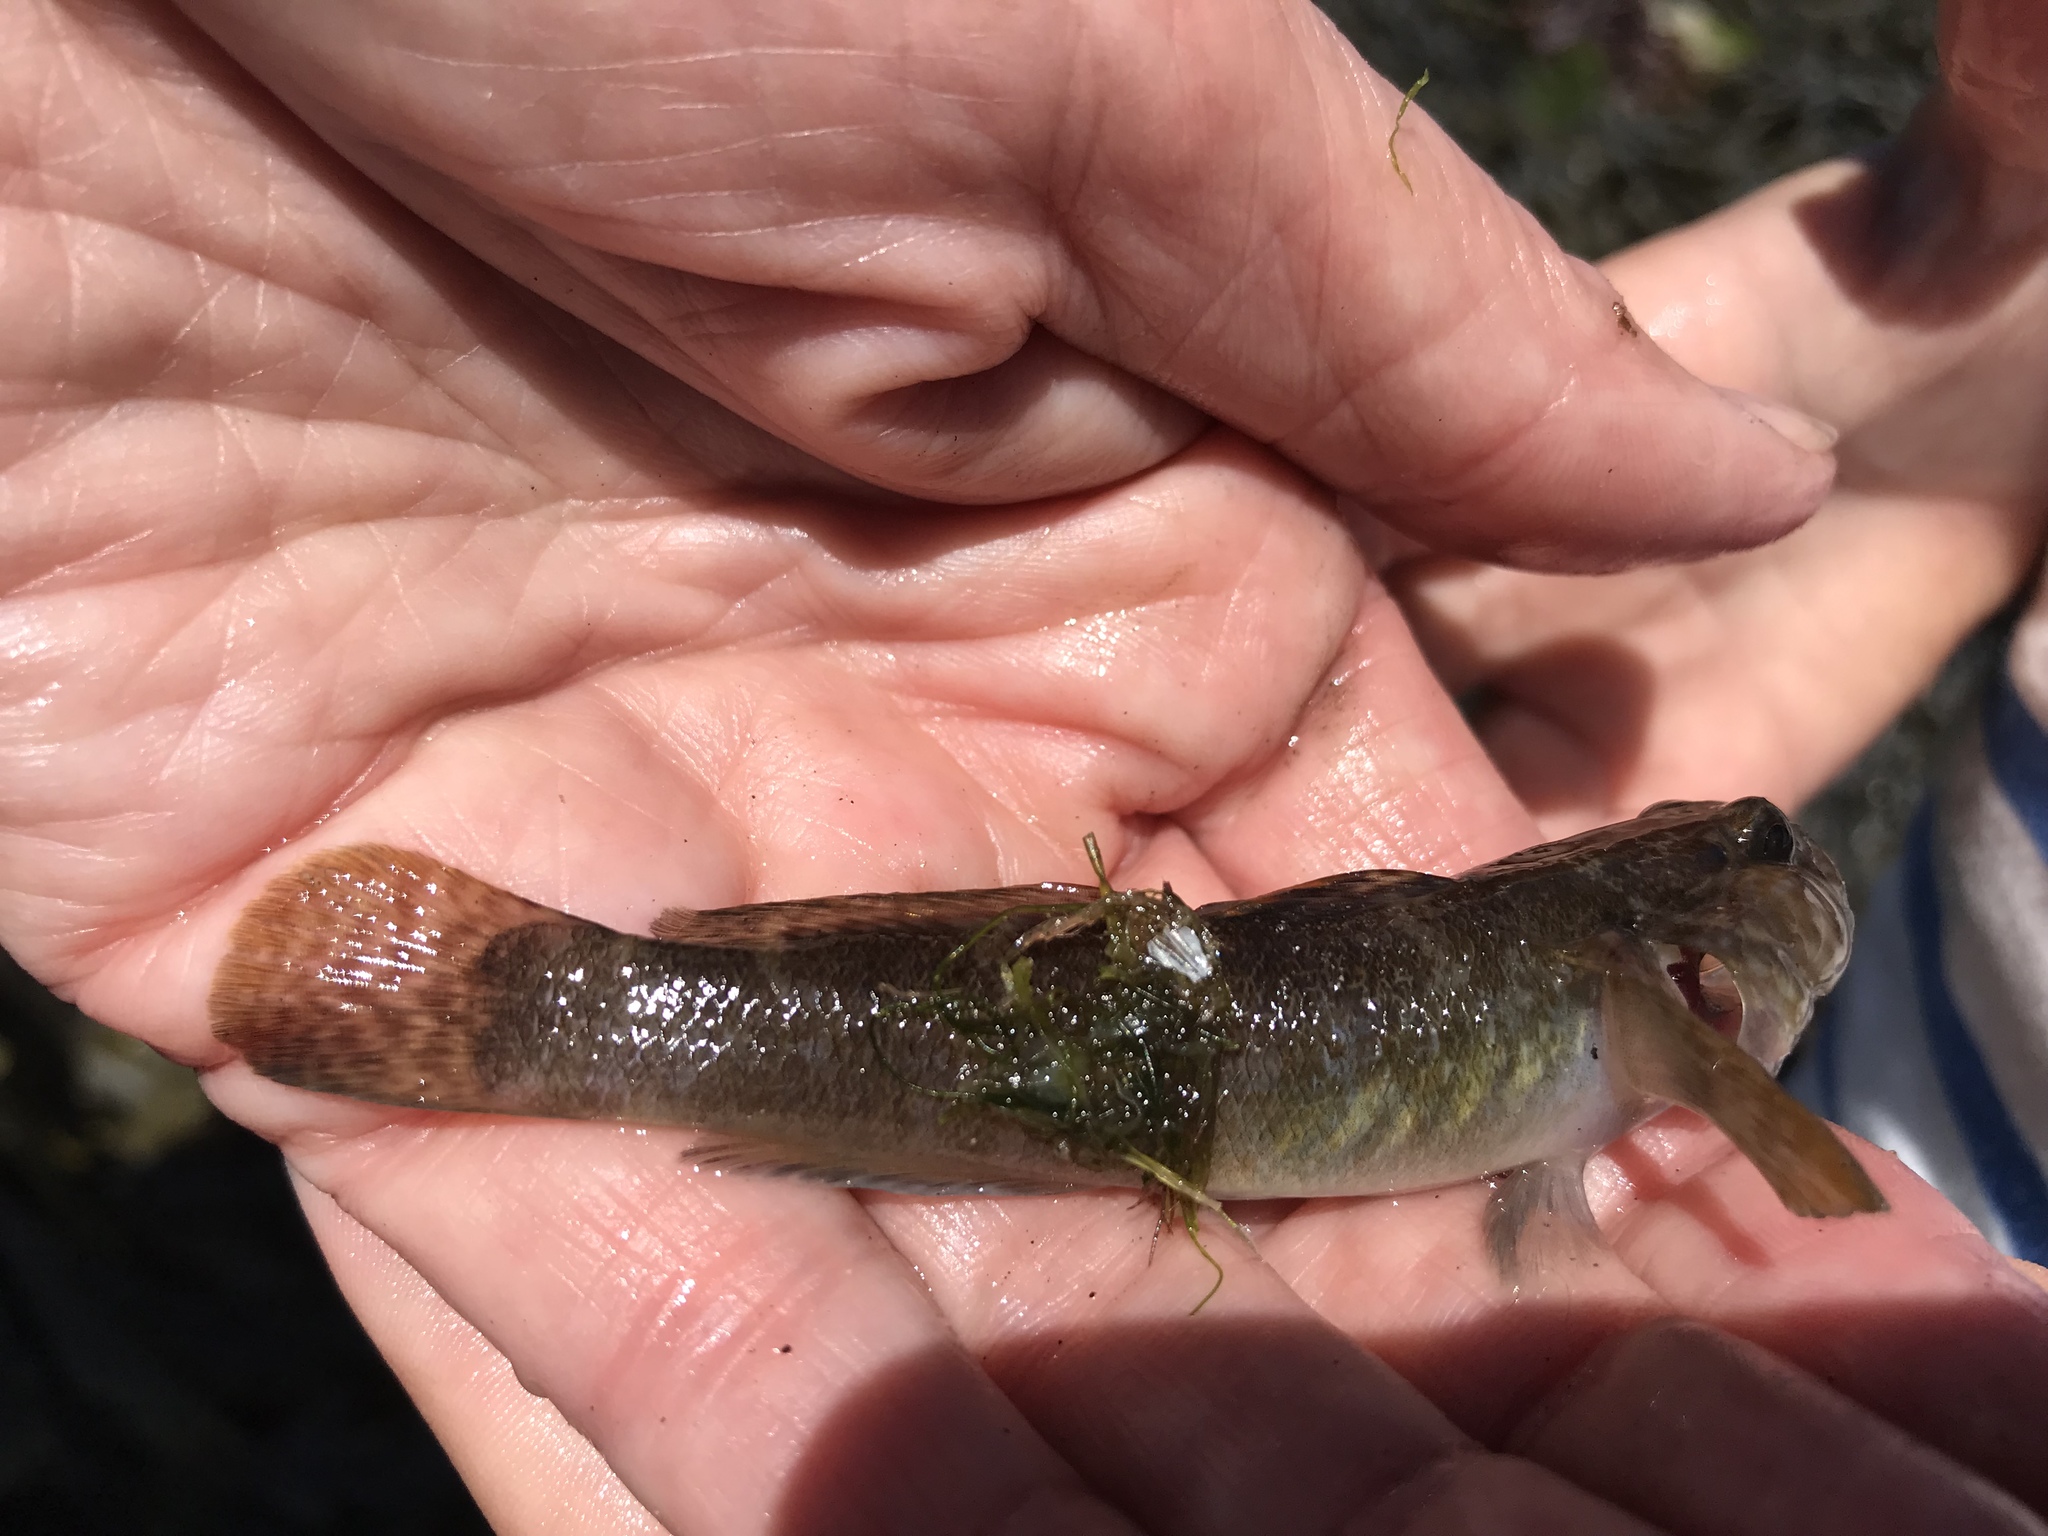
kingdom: Animalia
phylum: Chordata
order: Perciformes
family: Gobiidae
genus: Gobius
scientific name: Gobius paganellus
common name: Rock goby
